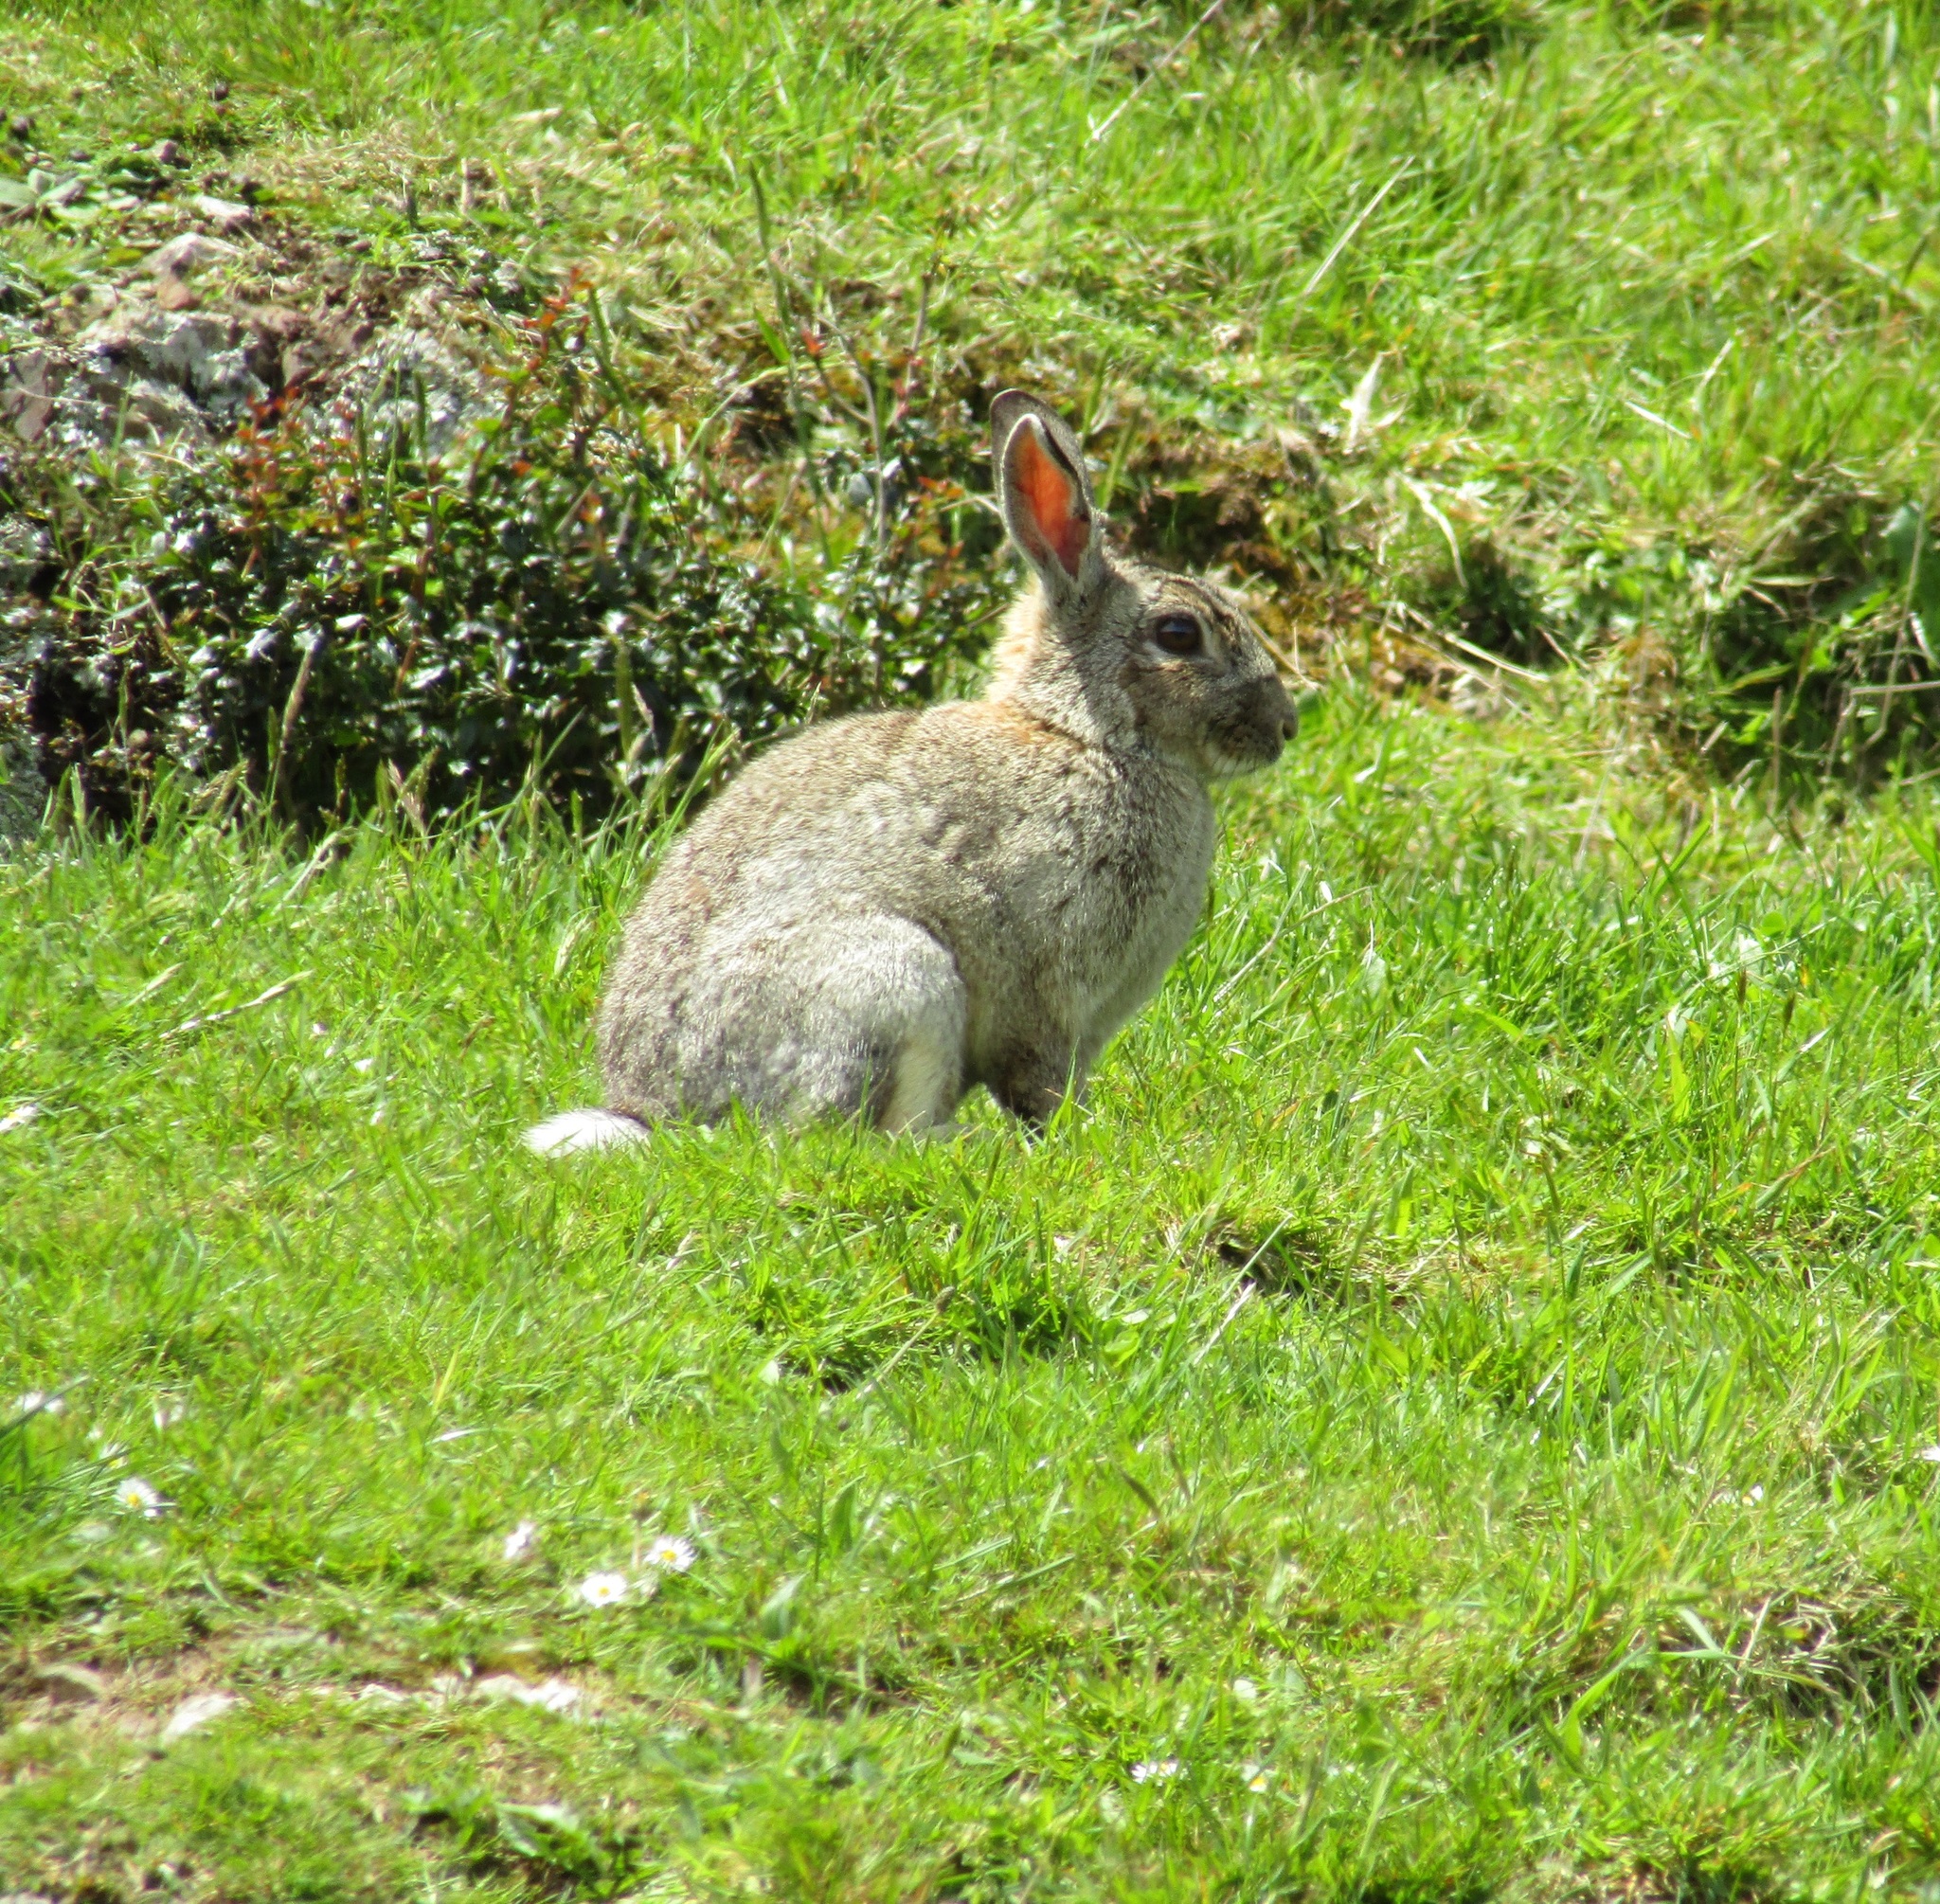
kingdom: Animalia
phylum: Chordata
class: Mammalia
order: Lagomorpha
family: Leporidae
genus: Oryctolagus
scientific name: Oryctolagus cuniculus
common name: European rabbit
